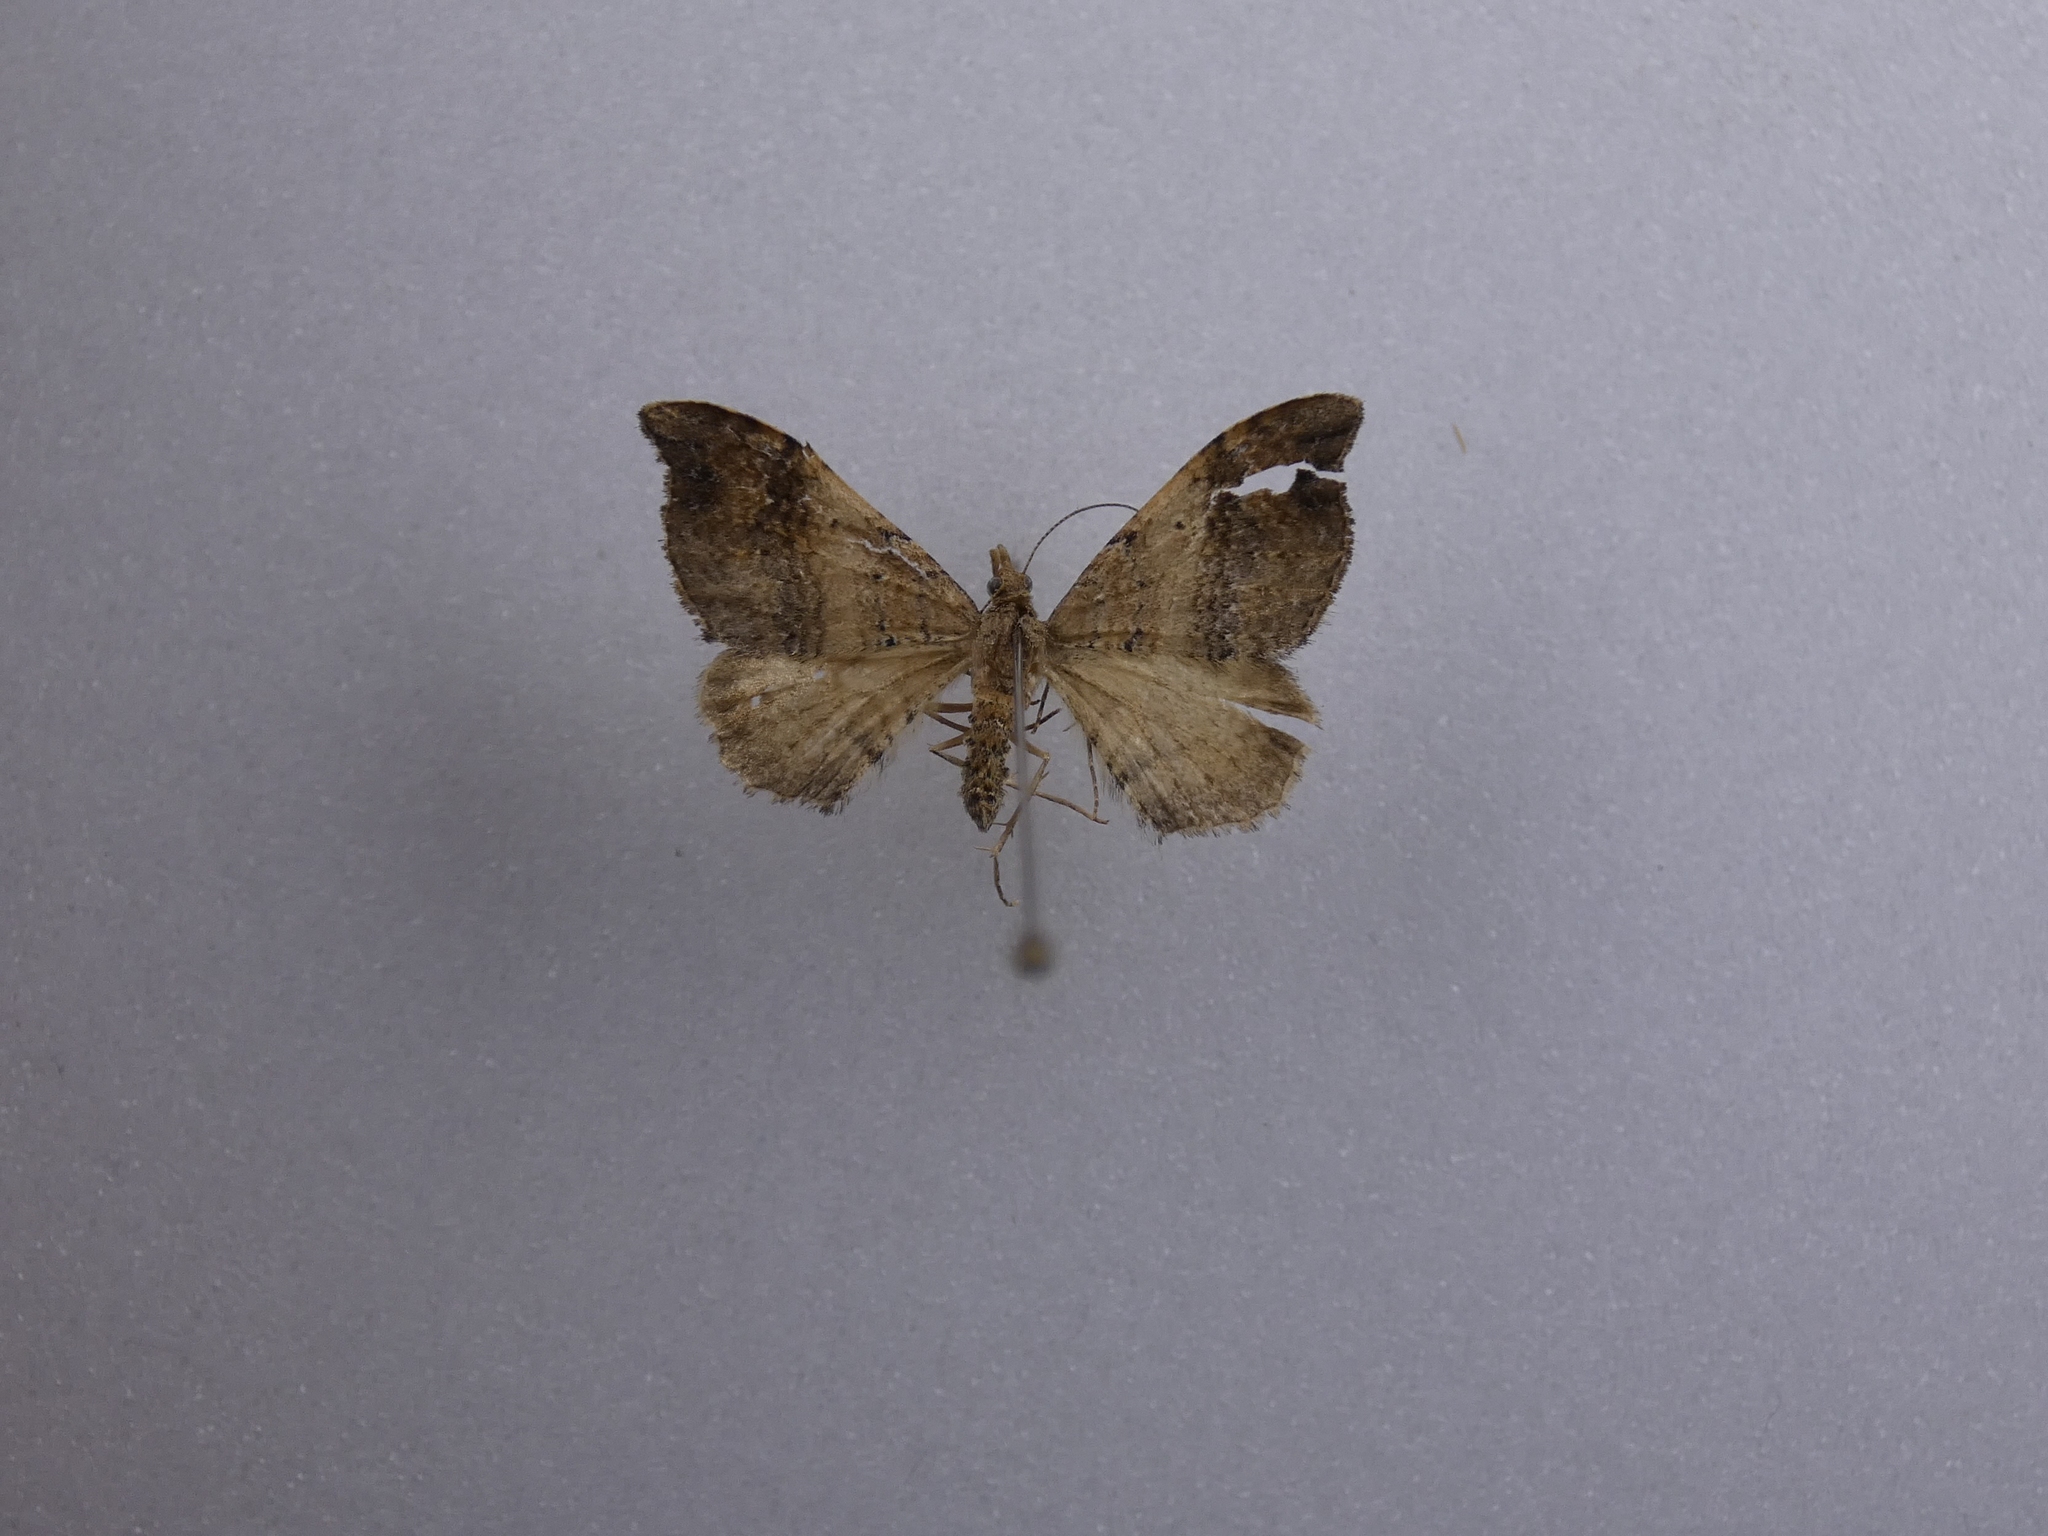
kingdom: Animalia
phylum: Arthropoda
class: Insecta
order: Lepidoptera
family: Geometridae
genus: Homodotis
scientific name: Homodotis megaspilata
